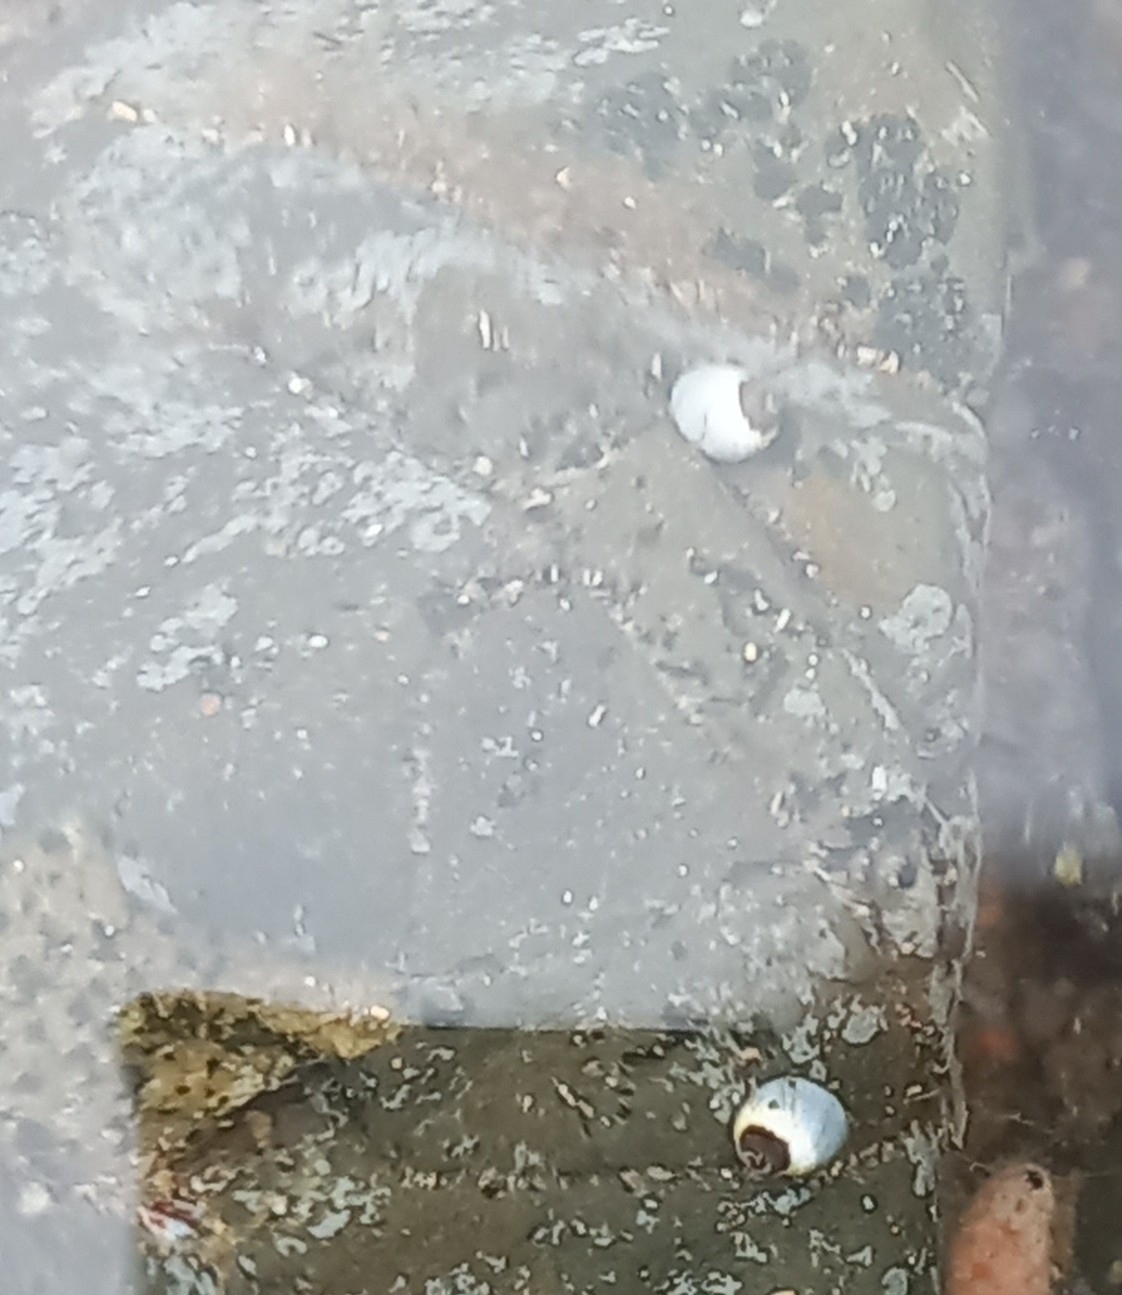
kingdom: Animalia
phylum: Mollusca
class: Gastropoda
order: Littorinimorpha
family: Littorinidae
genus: Afrolittorina
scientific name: Afrolittorina africana
